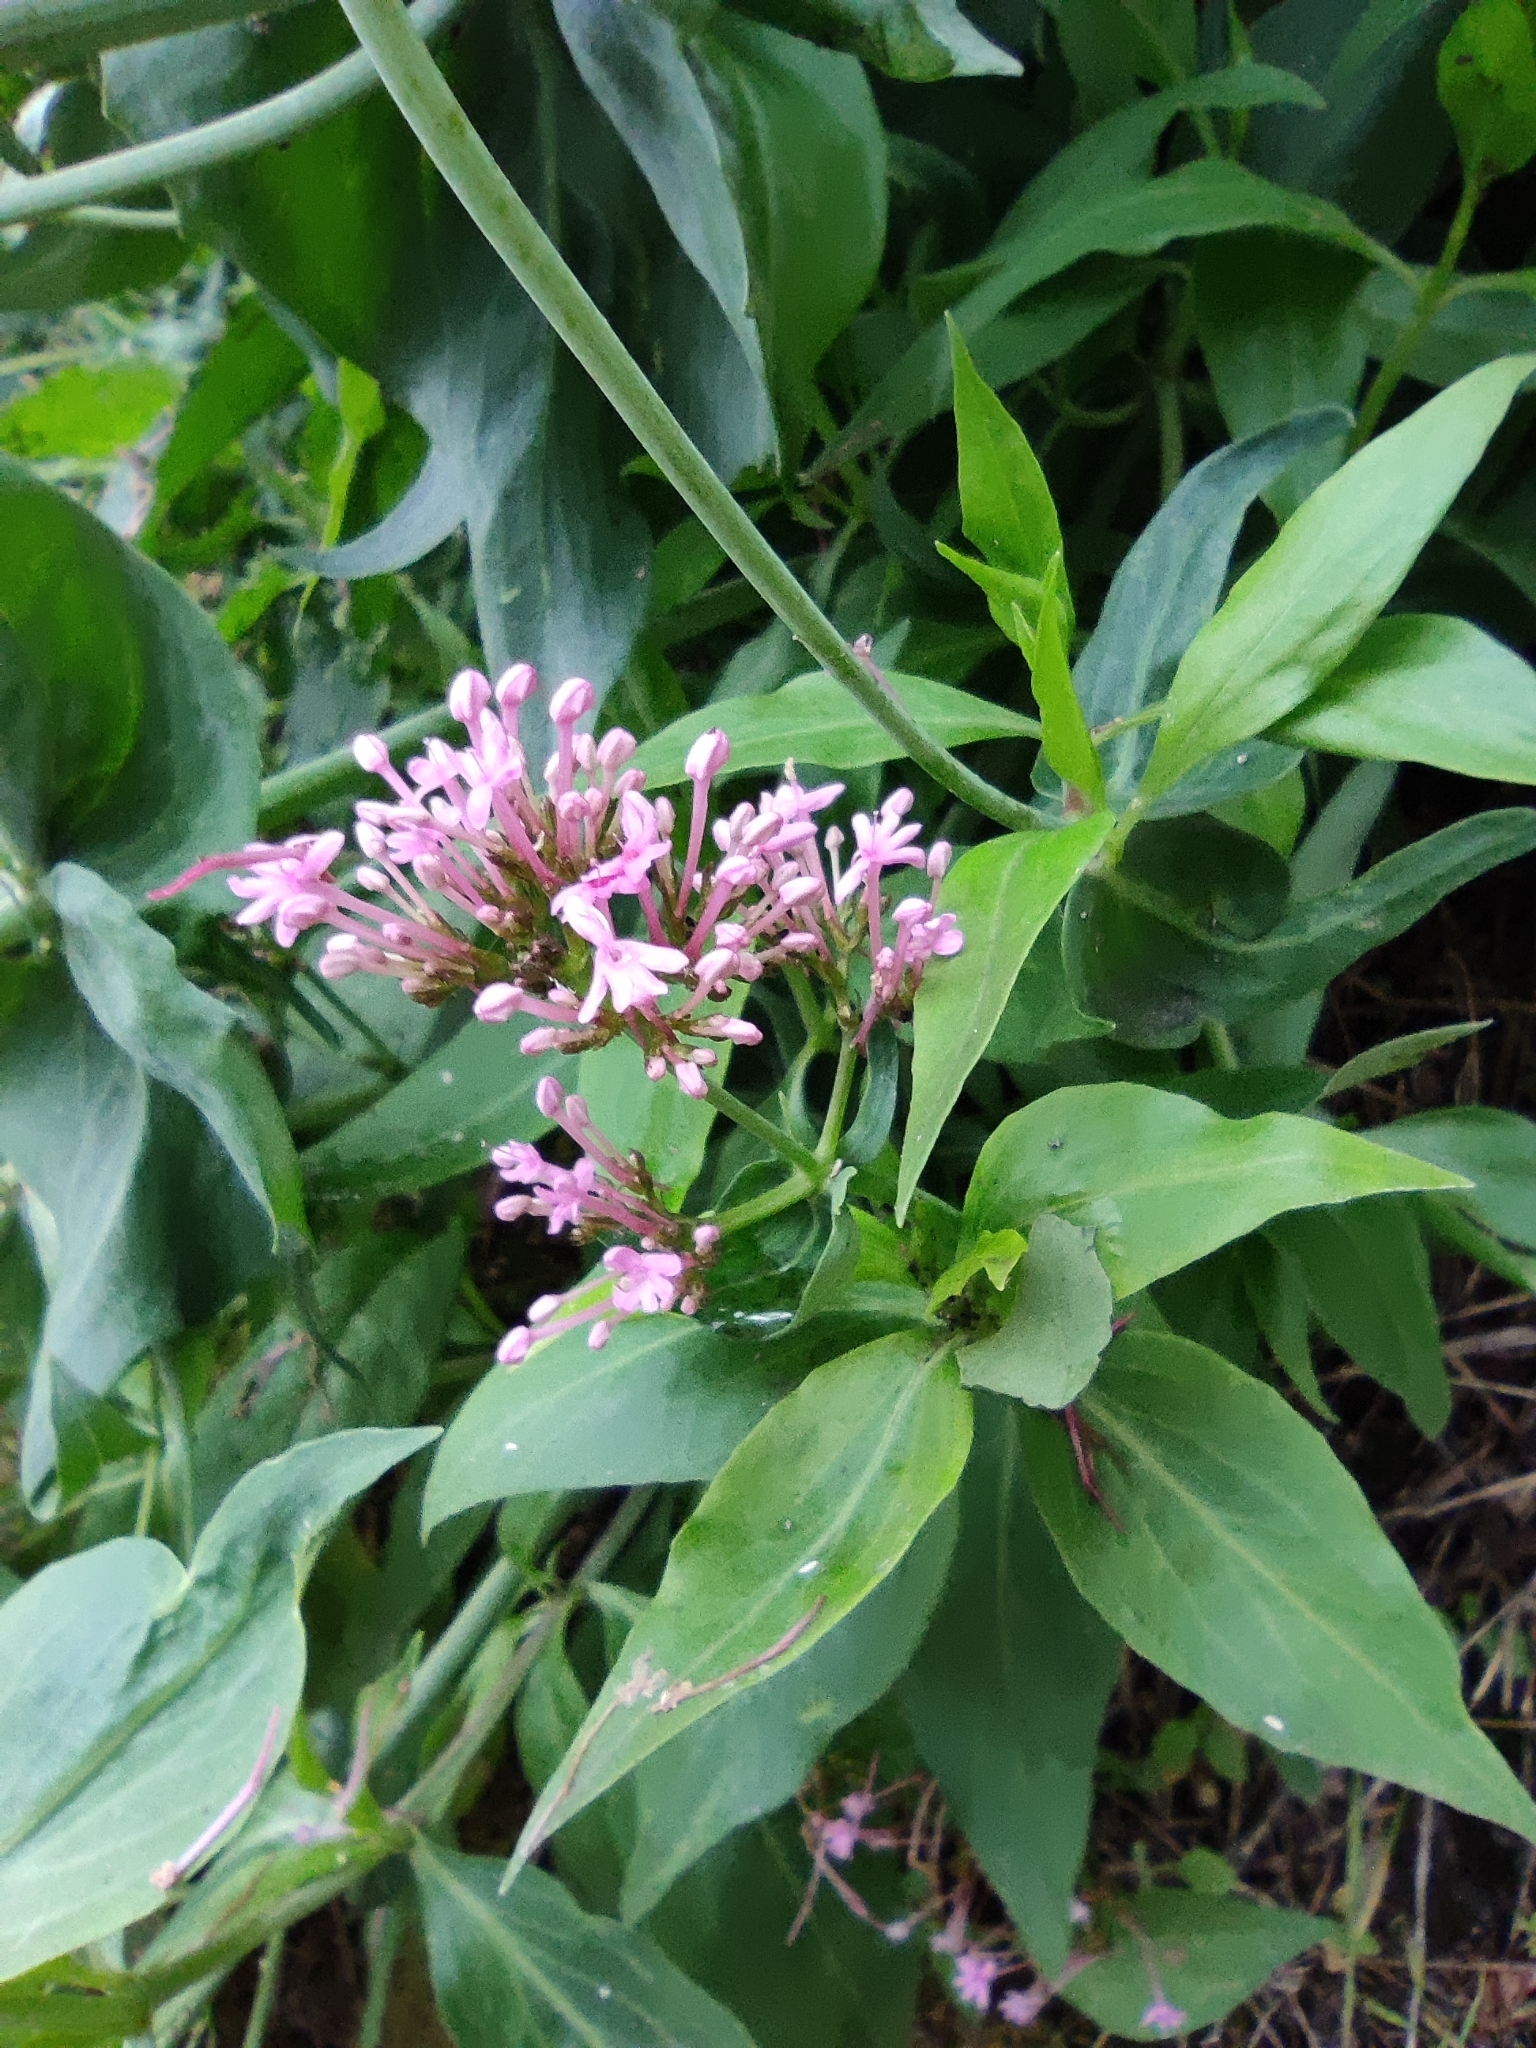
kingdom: Plantae
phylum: Tracheophyta
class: Magnoliopsida
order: Dipsacales
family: Caprifoliaceae
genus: Centranthus
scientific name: Centranthus ruber
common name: Red valerian
